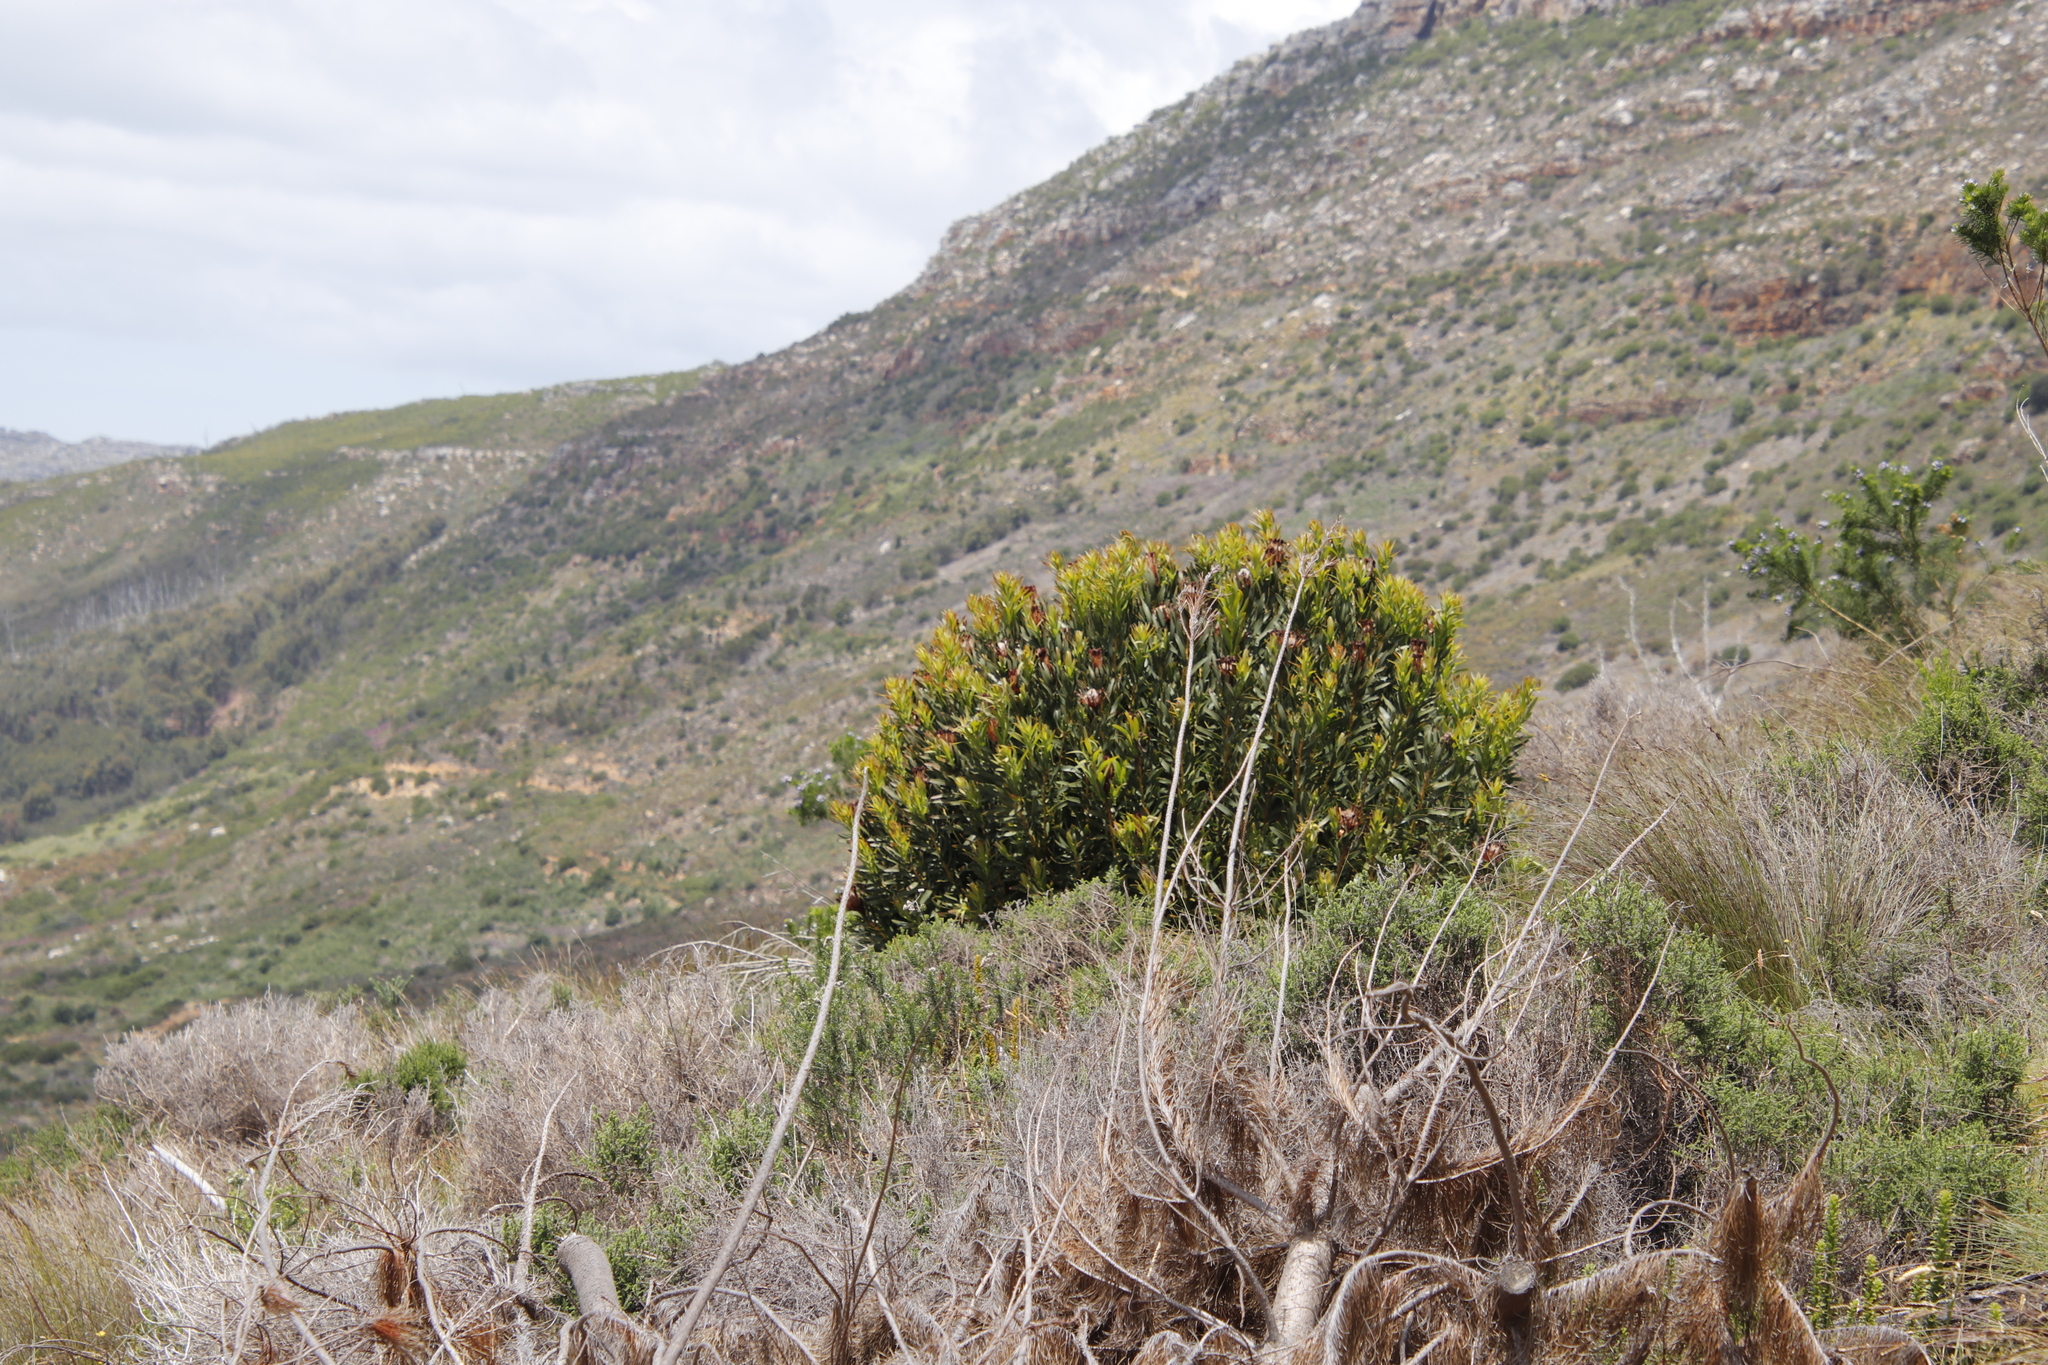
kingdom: Plantae
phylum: Tracheophyta
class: Magnoliopsida
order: Proteales
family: Proteaceae
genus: Protea
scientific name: Protea lepidocarpodendron
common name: Black-bearded protea
